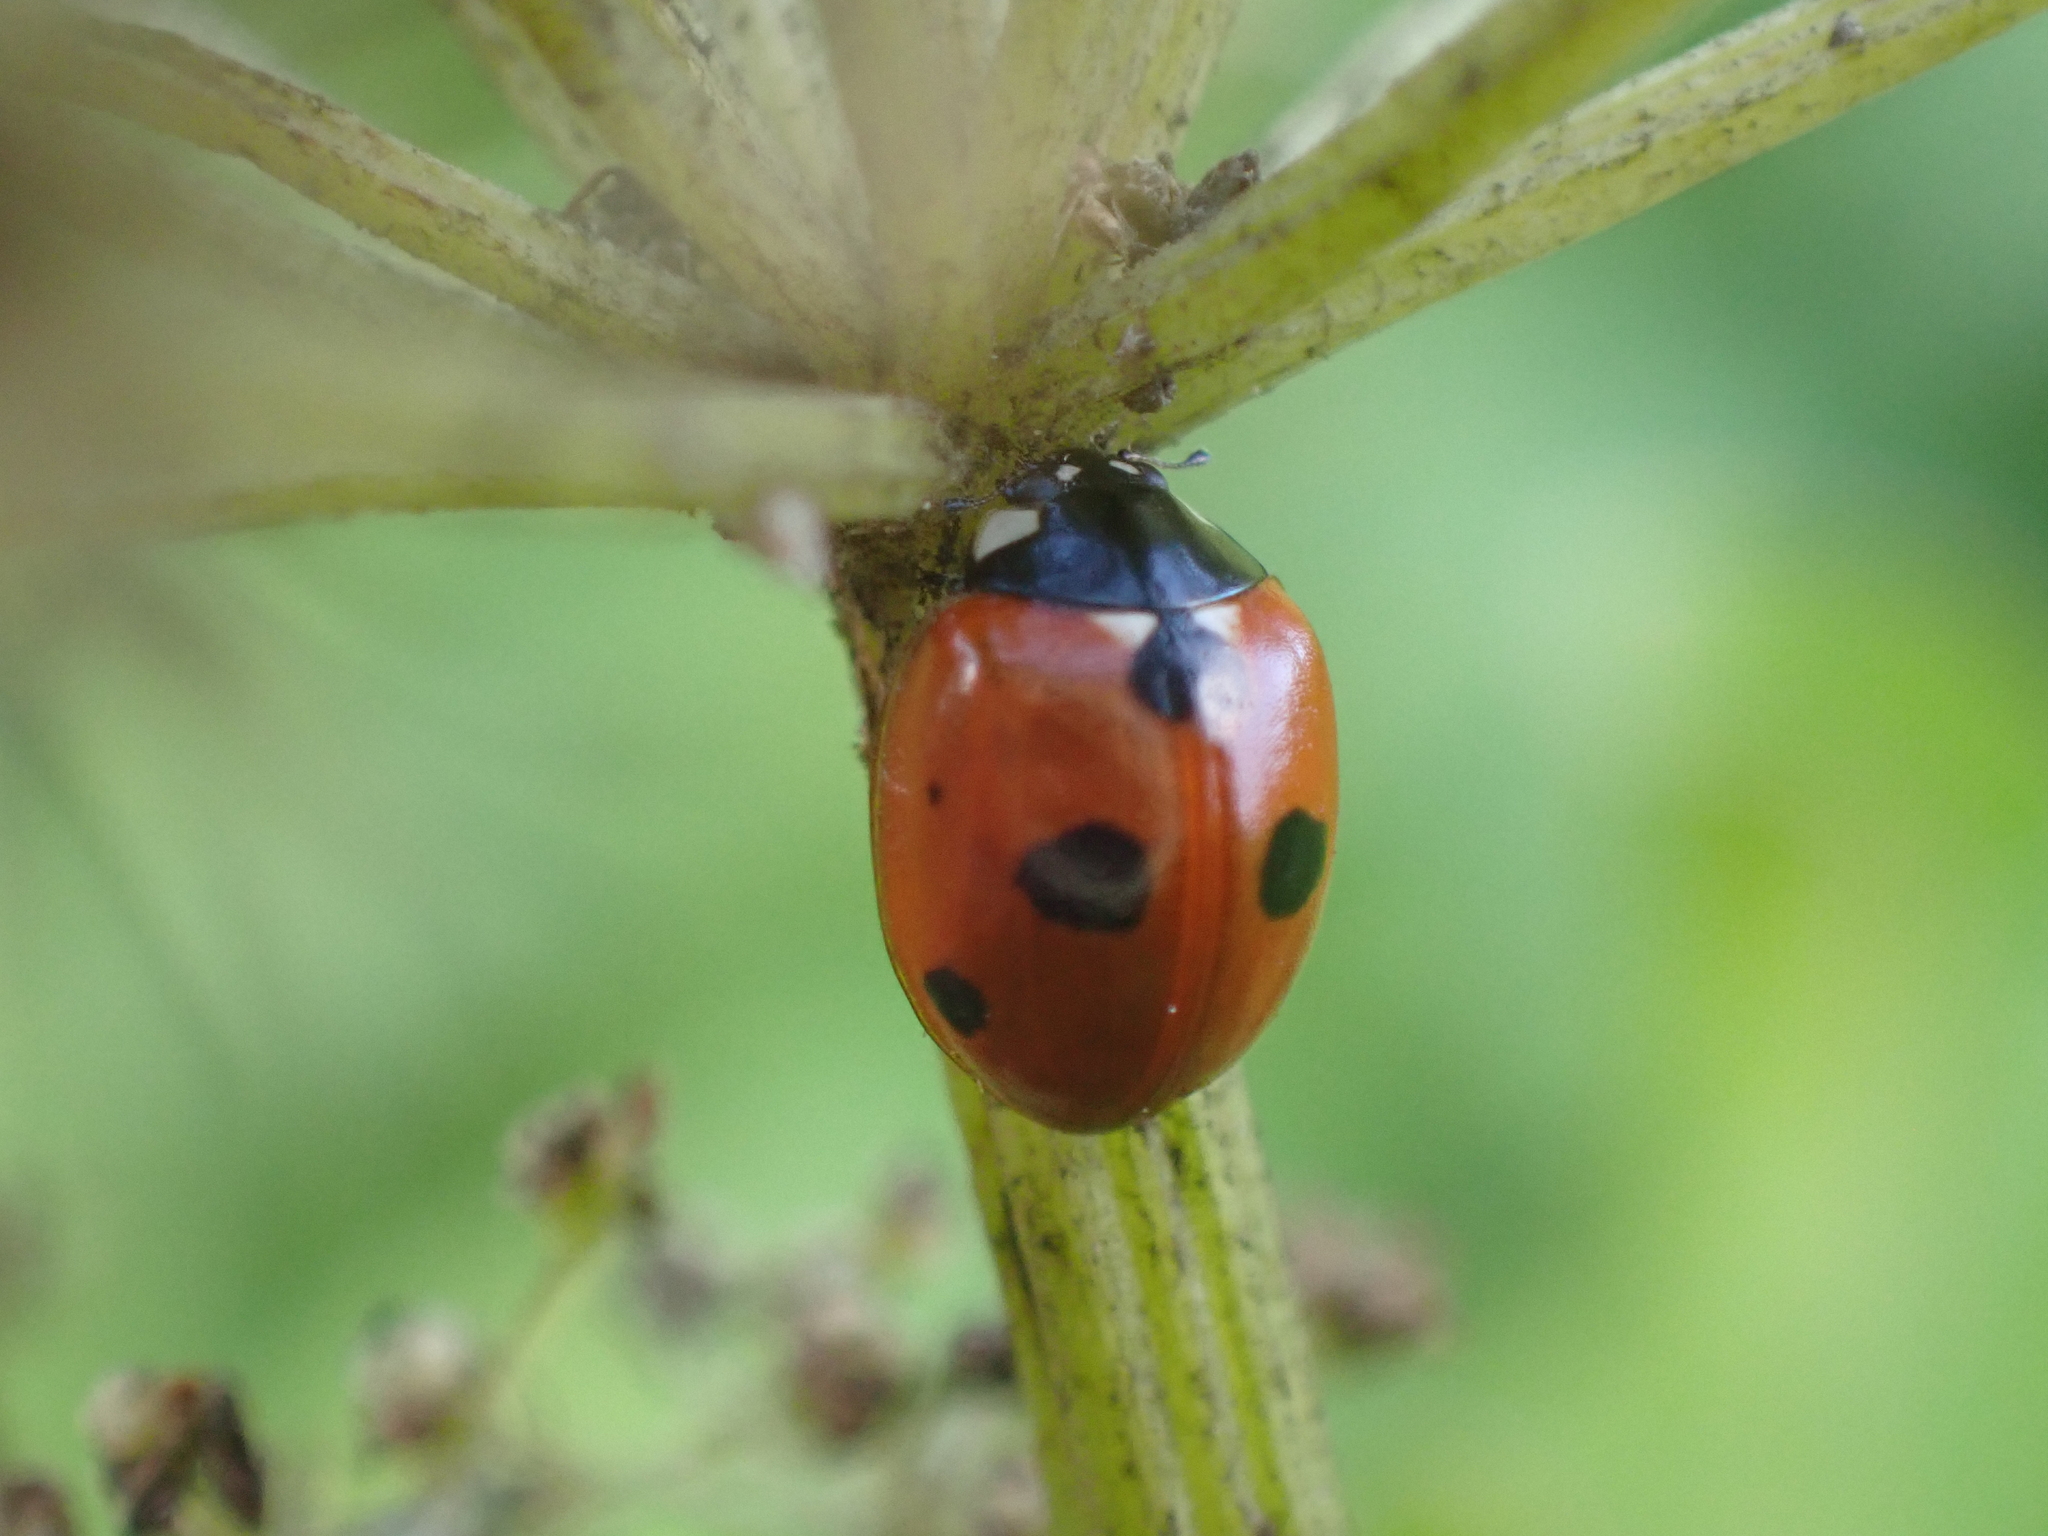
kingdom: Animalia
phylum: Arthropoda
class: Insecta
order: Coleoptera
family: Coccinellidae
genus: Coccinella
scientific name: Coccinella quinquepunctata
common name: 5-spot ladybird
